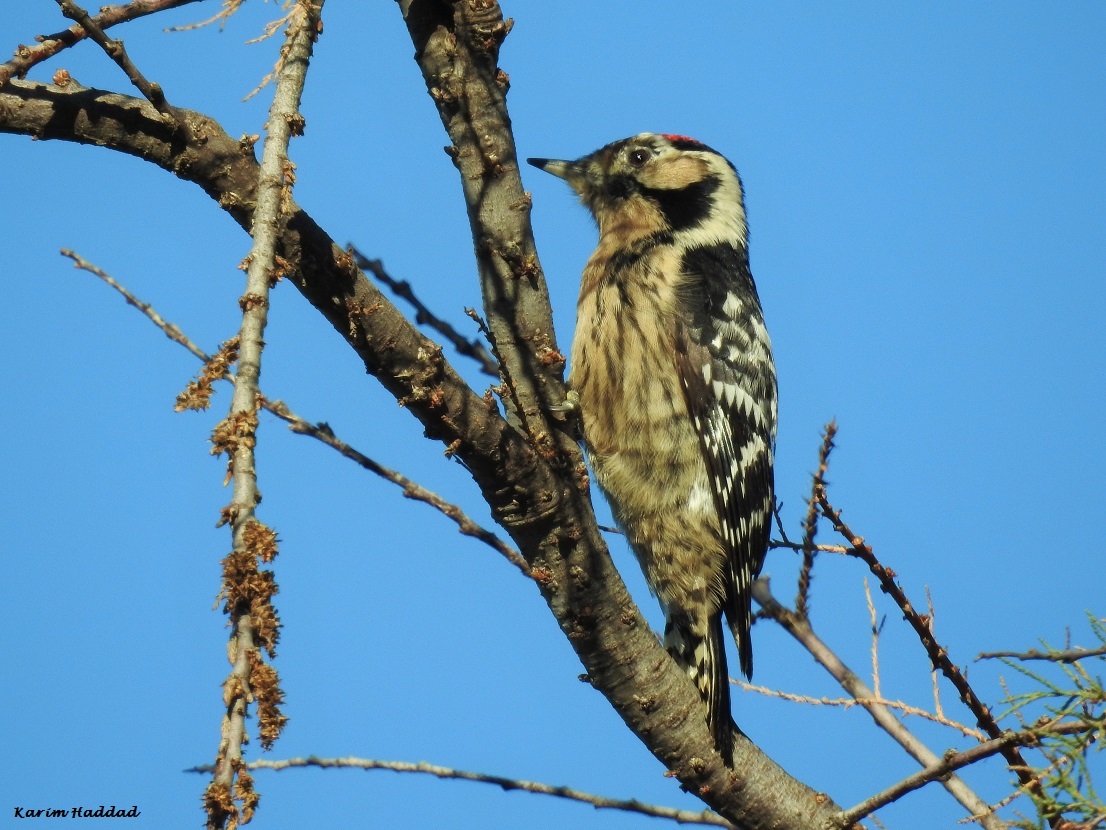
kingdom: Animalia
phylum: Chordata
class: Aves
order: Piciformes
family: Picidae
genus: Dryobates
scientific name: Dryobates minor
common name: Lesser spotted woodpecker
